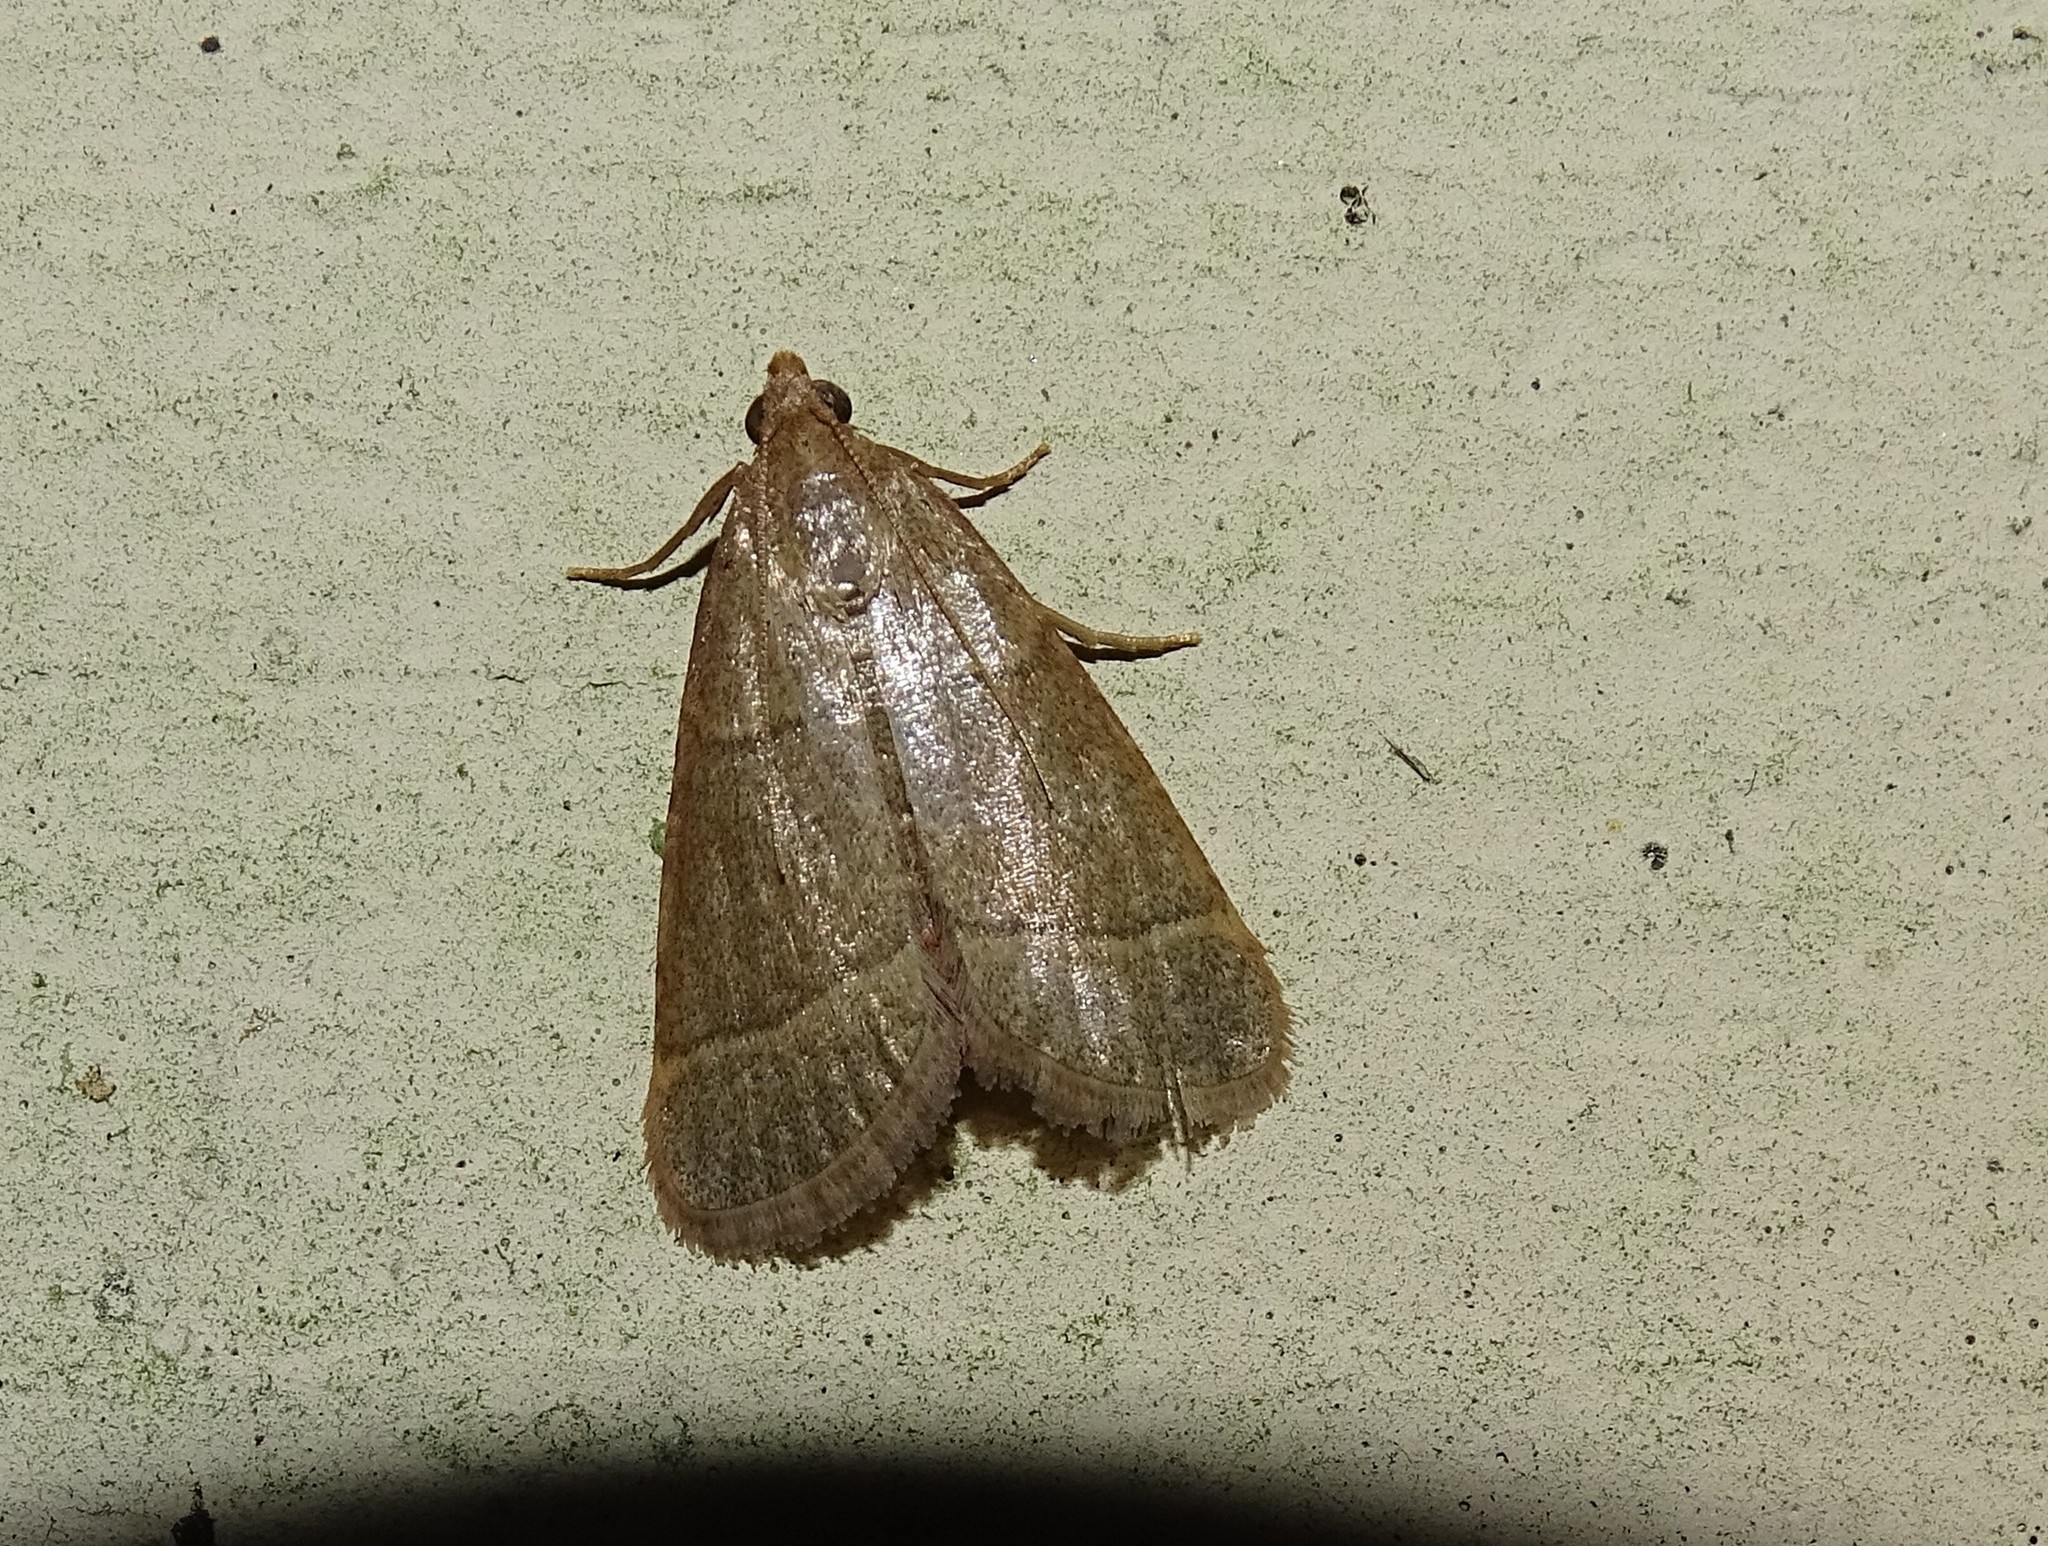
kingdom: Animalia
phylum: Arthropoda
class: Insecta
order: Lepidoptera
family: Pyralidae
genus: Hypsopygia
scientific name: Hypsopygia nostralis
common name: Southern hayworm moth
